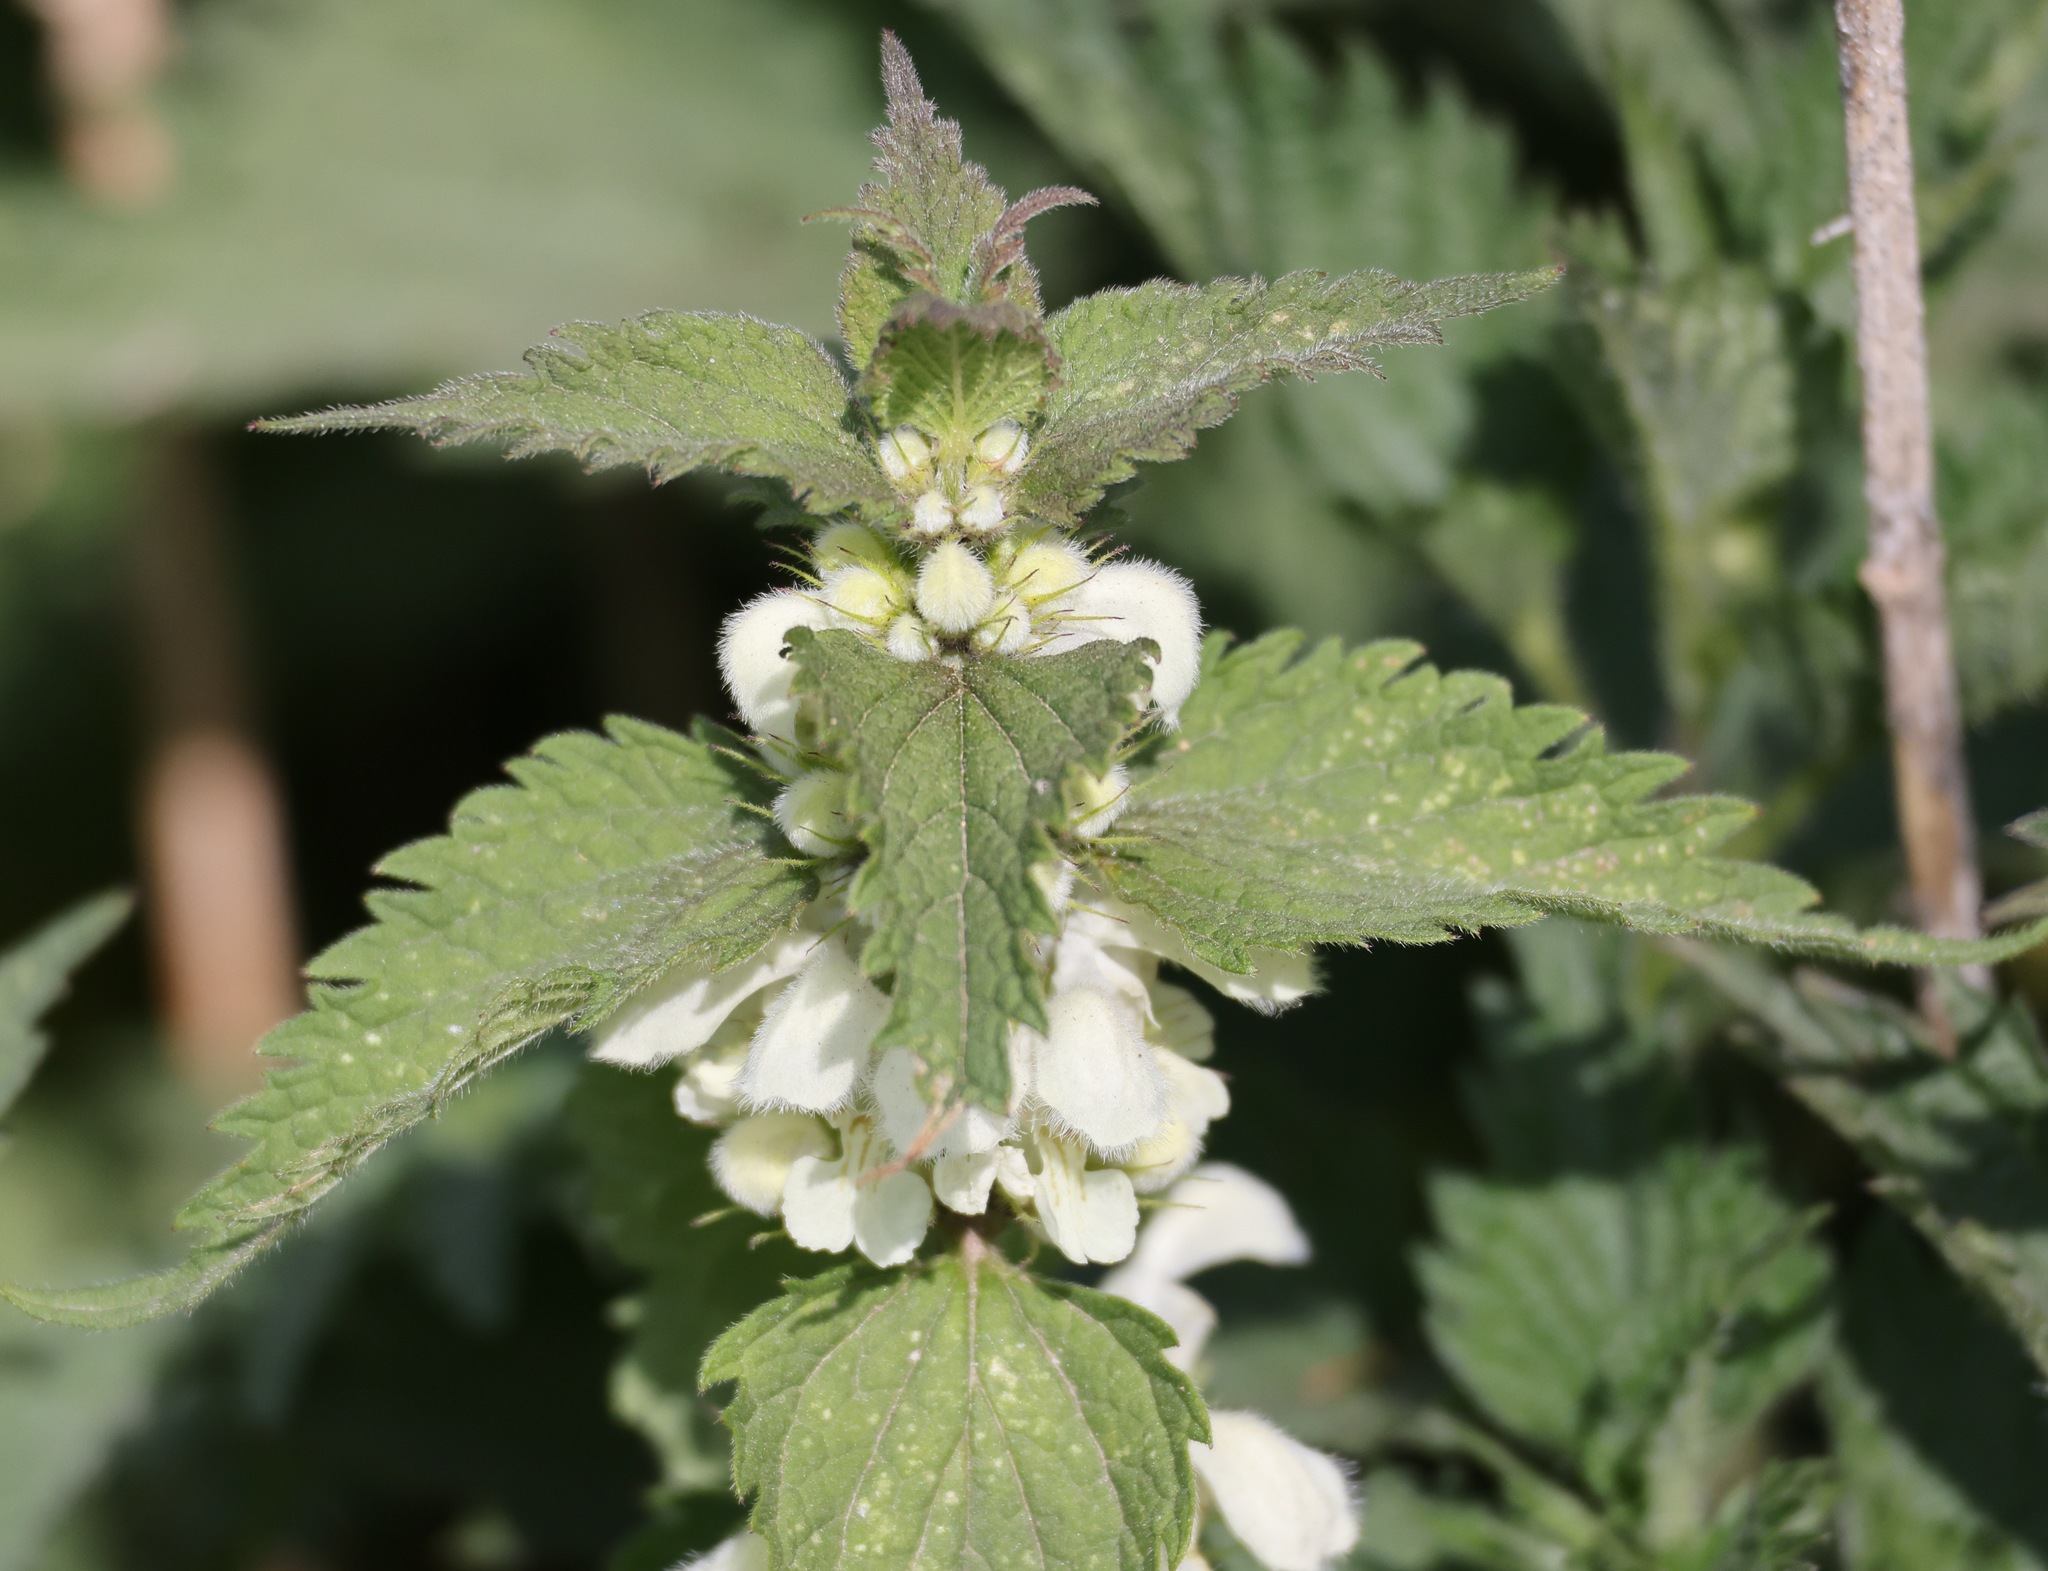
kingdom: Plantae
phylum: Tracheophyta
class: Magnoliopsida
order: Lamiales
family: Lamiaceae
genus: Lamium
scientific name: Lamium album
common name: White dead-nettle
